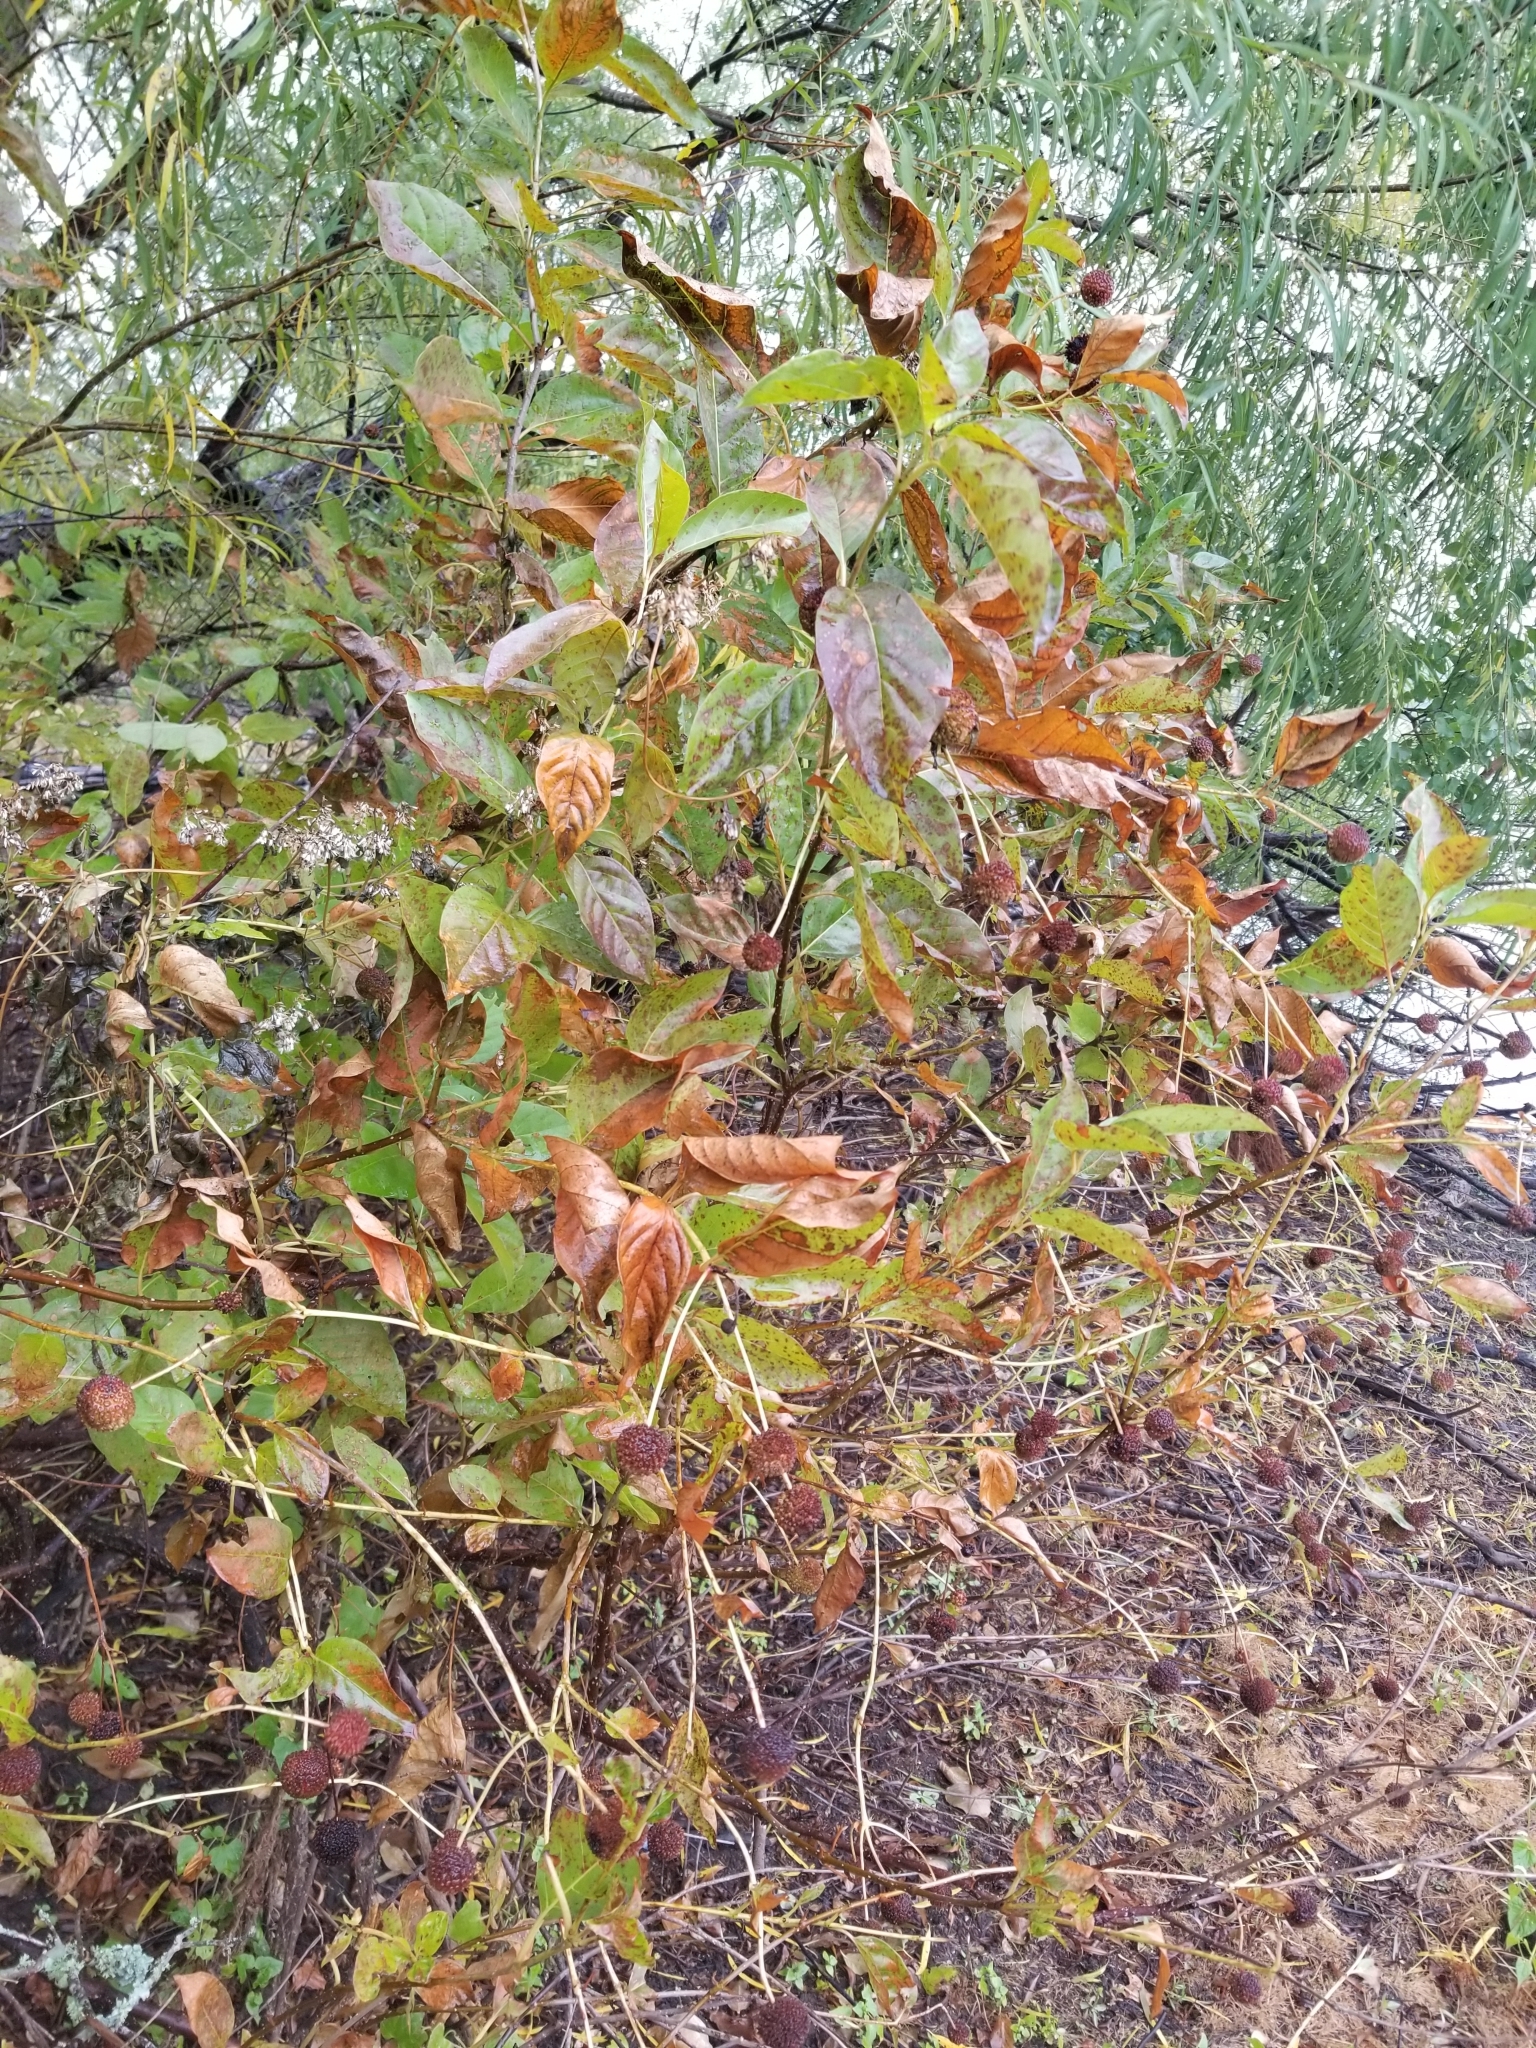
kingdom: Plantae
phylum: Tracheophyta
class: Magnoliopsida
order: Gentianales
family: Rubiaceae
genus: Cephalanthus
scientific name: Cephalanthus occidentalis
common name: Button-willow
